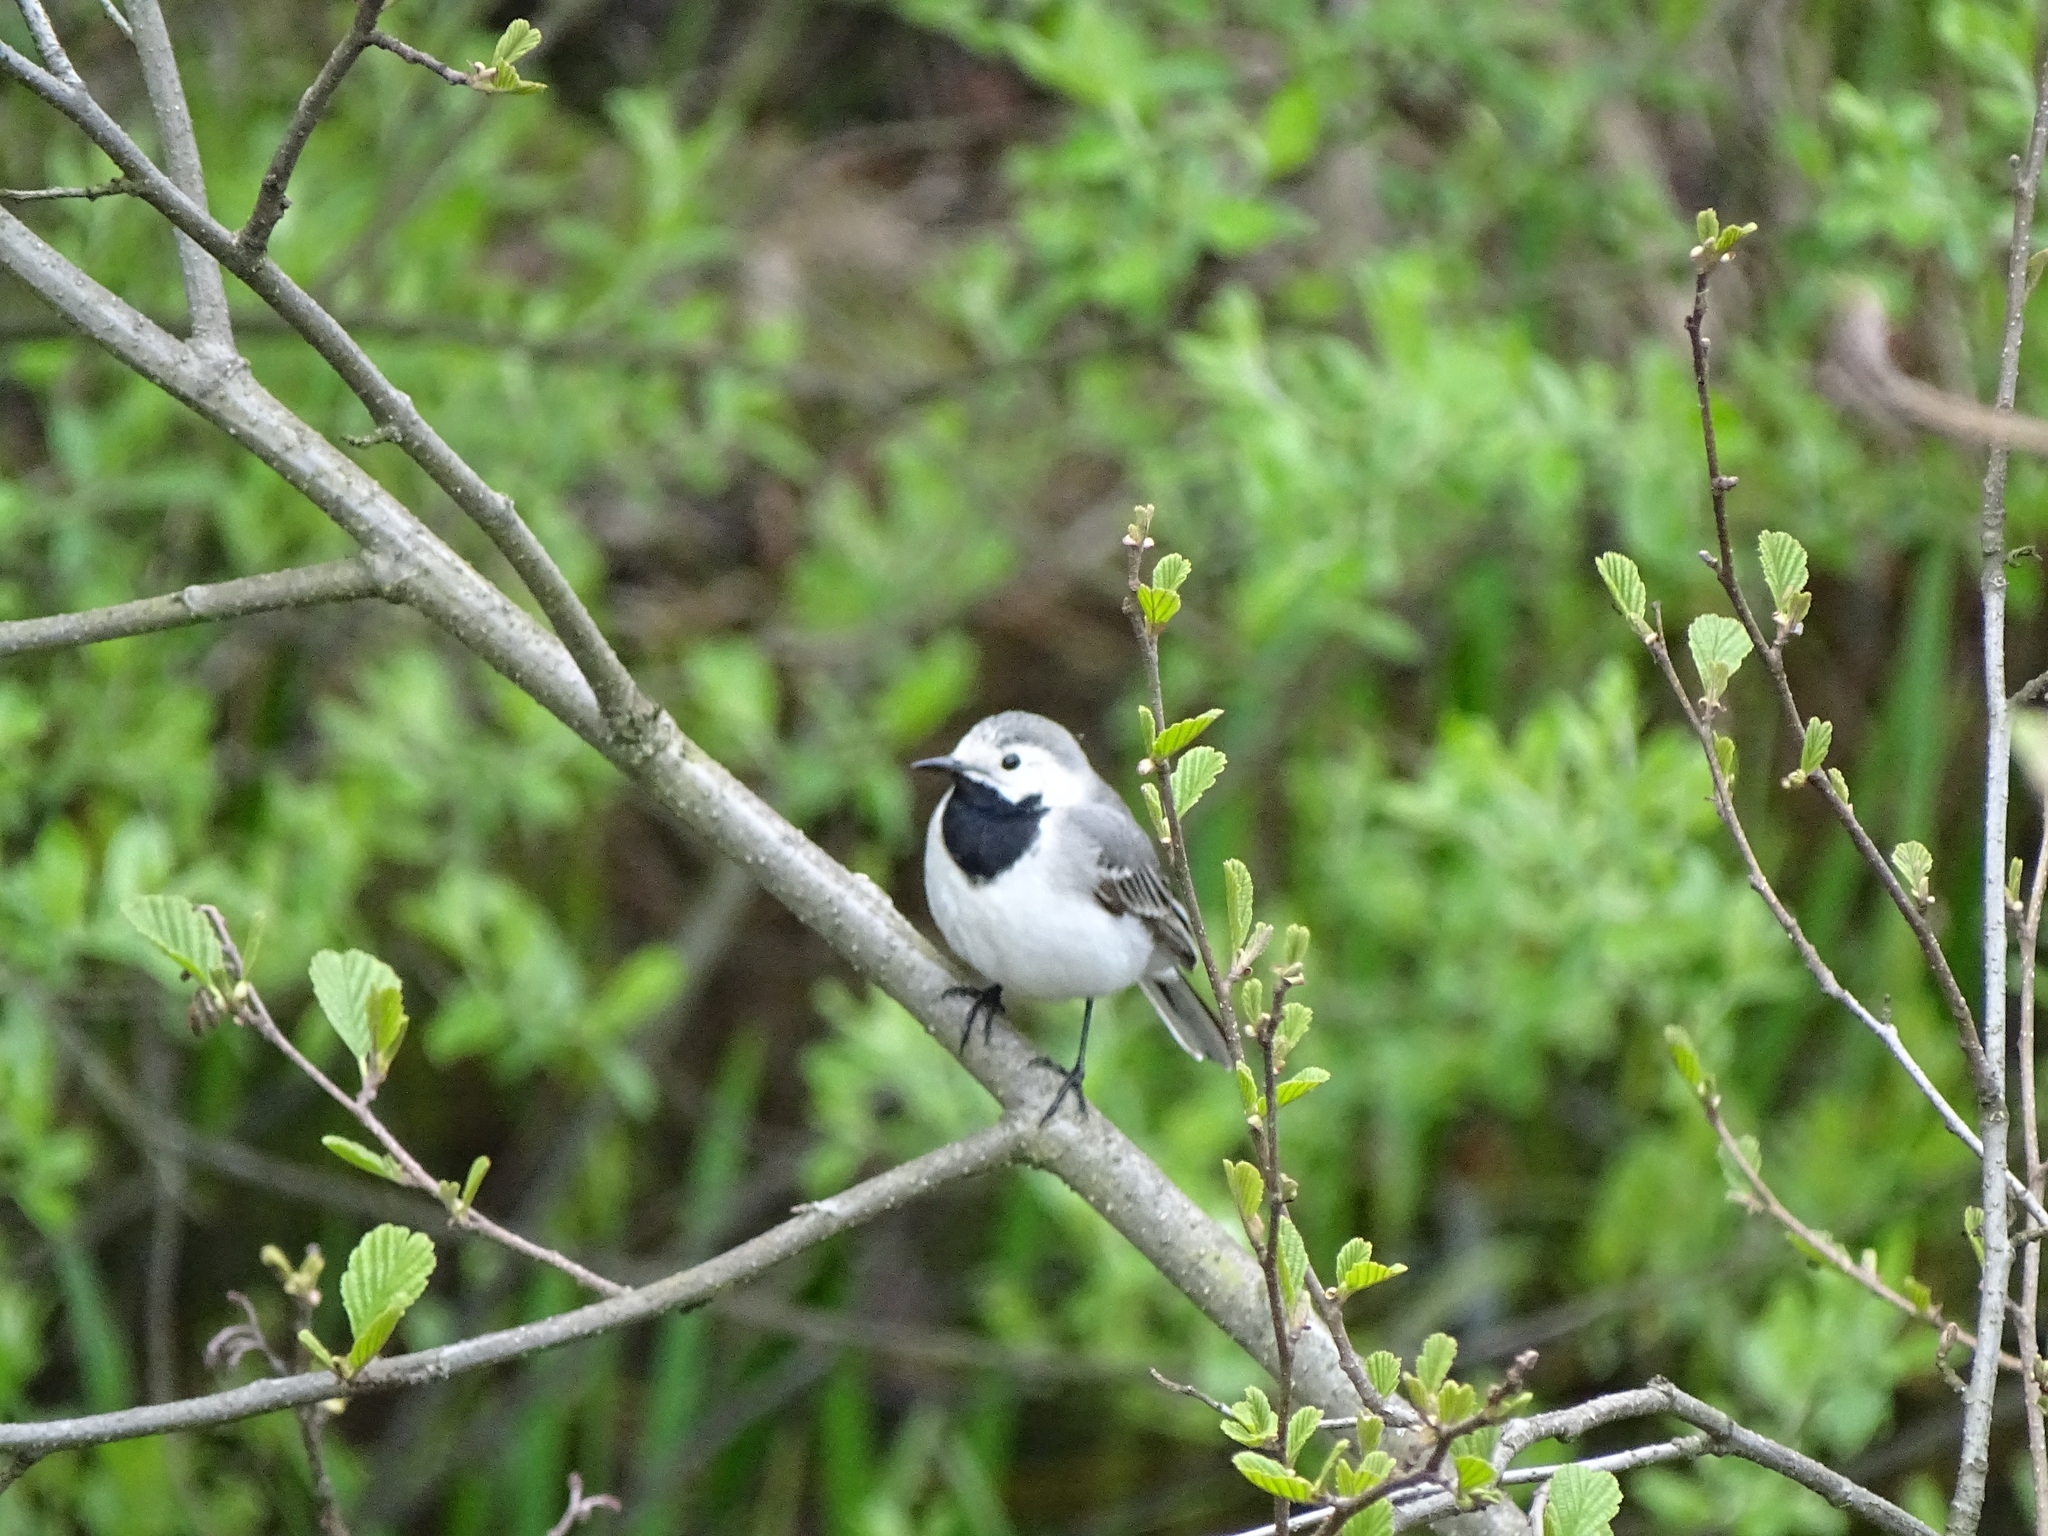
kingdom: Animalia
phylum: Chordata
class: Aves
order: Passeriformes
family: Motacillidae
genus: Motacilla
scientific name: Motacilla alba
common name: White wagtail
